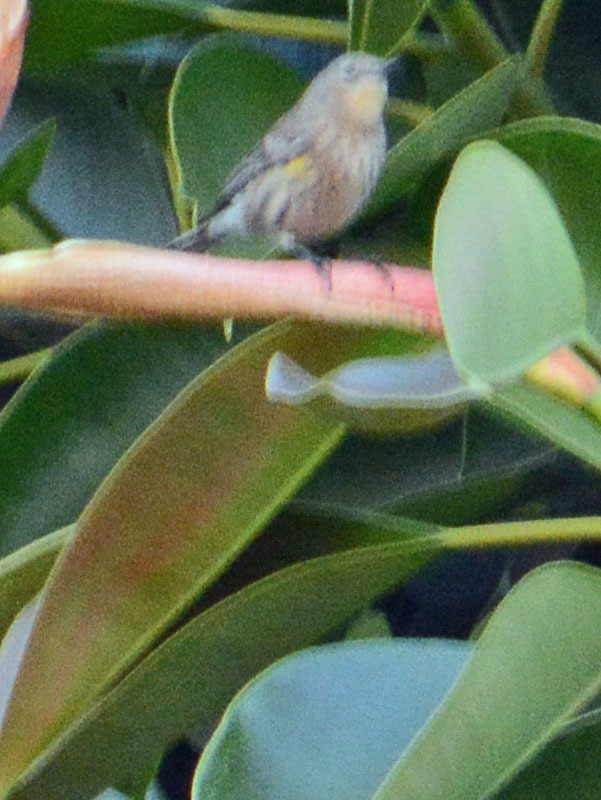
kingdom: Animalia
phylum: Chordata
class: Aves
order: Passeriformes
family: Parulidae
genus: Setophaga
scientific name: Setophaga coronata
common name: Myrtle warbler
